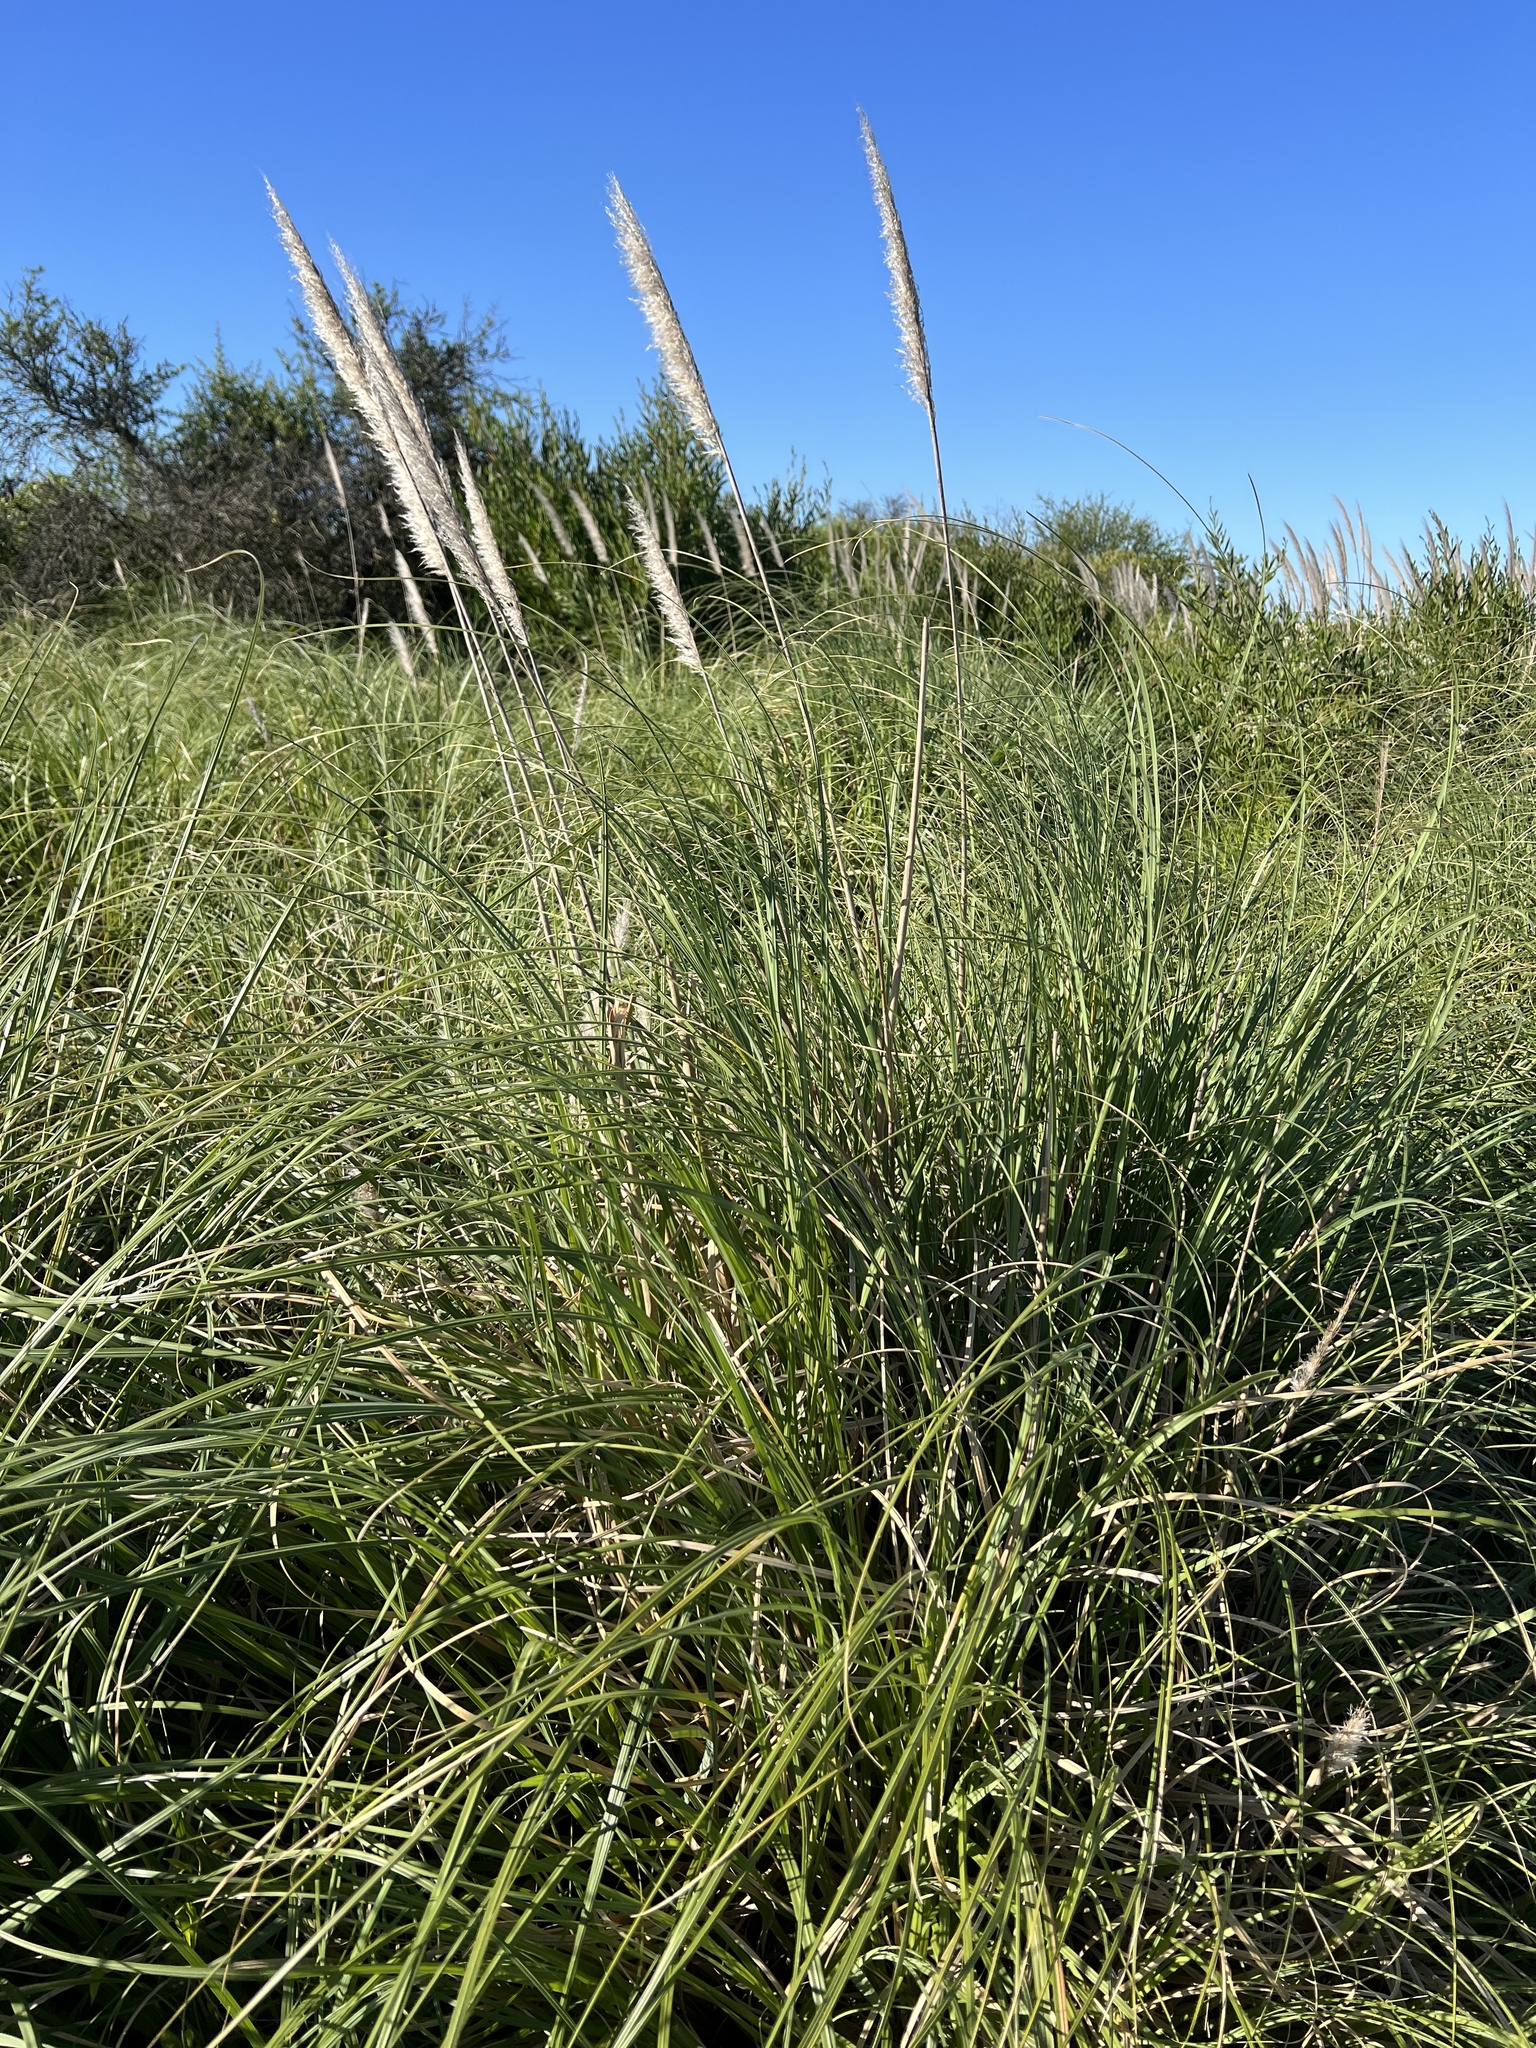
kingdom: Plantae
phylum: Tracheophyta
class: Liliopsida
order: Poales
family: Poaceae
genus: Cortaderia
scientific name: Cortaderia selloana
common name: Uruguayan pampas grass
